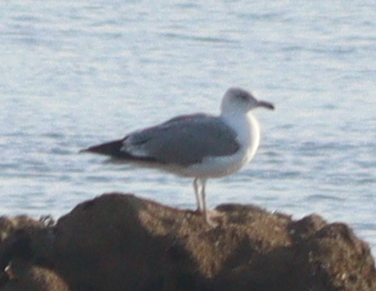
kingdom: Animalia
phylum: Chordata
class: Aves
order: Charadriiformes
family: Laridae
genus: Larus
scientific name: Larus argentatus
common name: Herring gull
